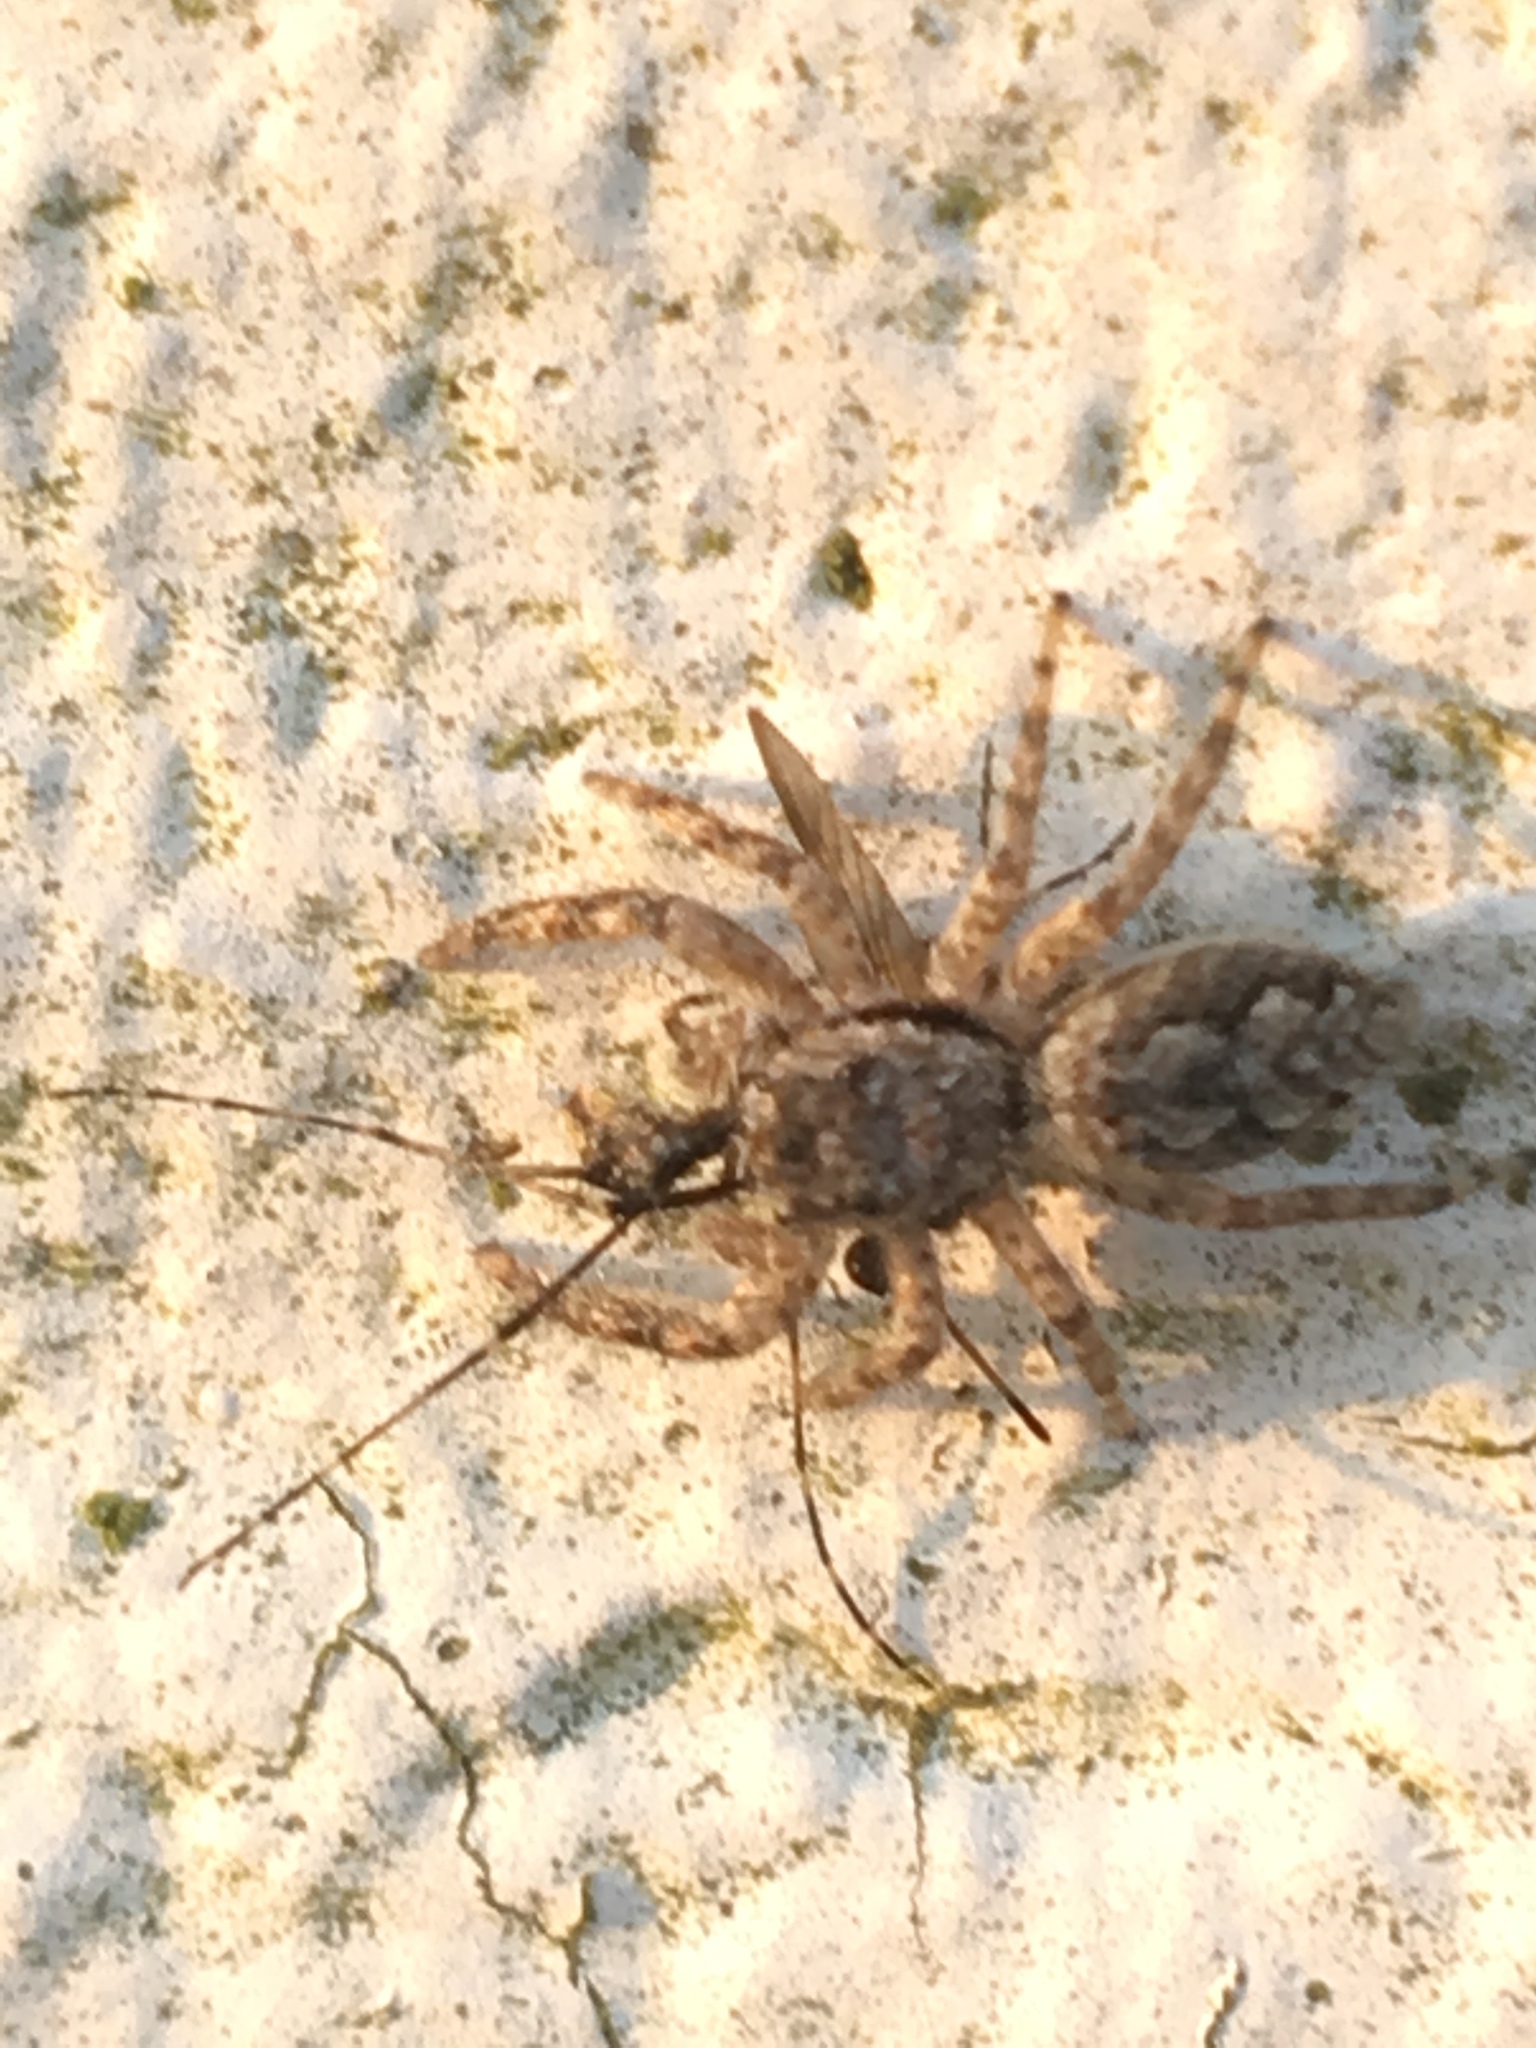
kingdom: Animalia
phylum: Arthropoda
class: Arachnida
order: Araneae
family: Salticidae
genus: Platycryptus
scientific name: Platycryptus undatus
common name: Tan jumping spider
